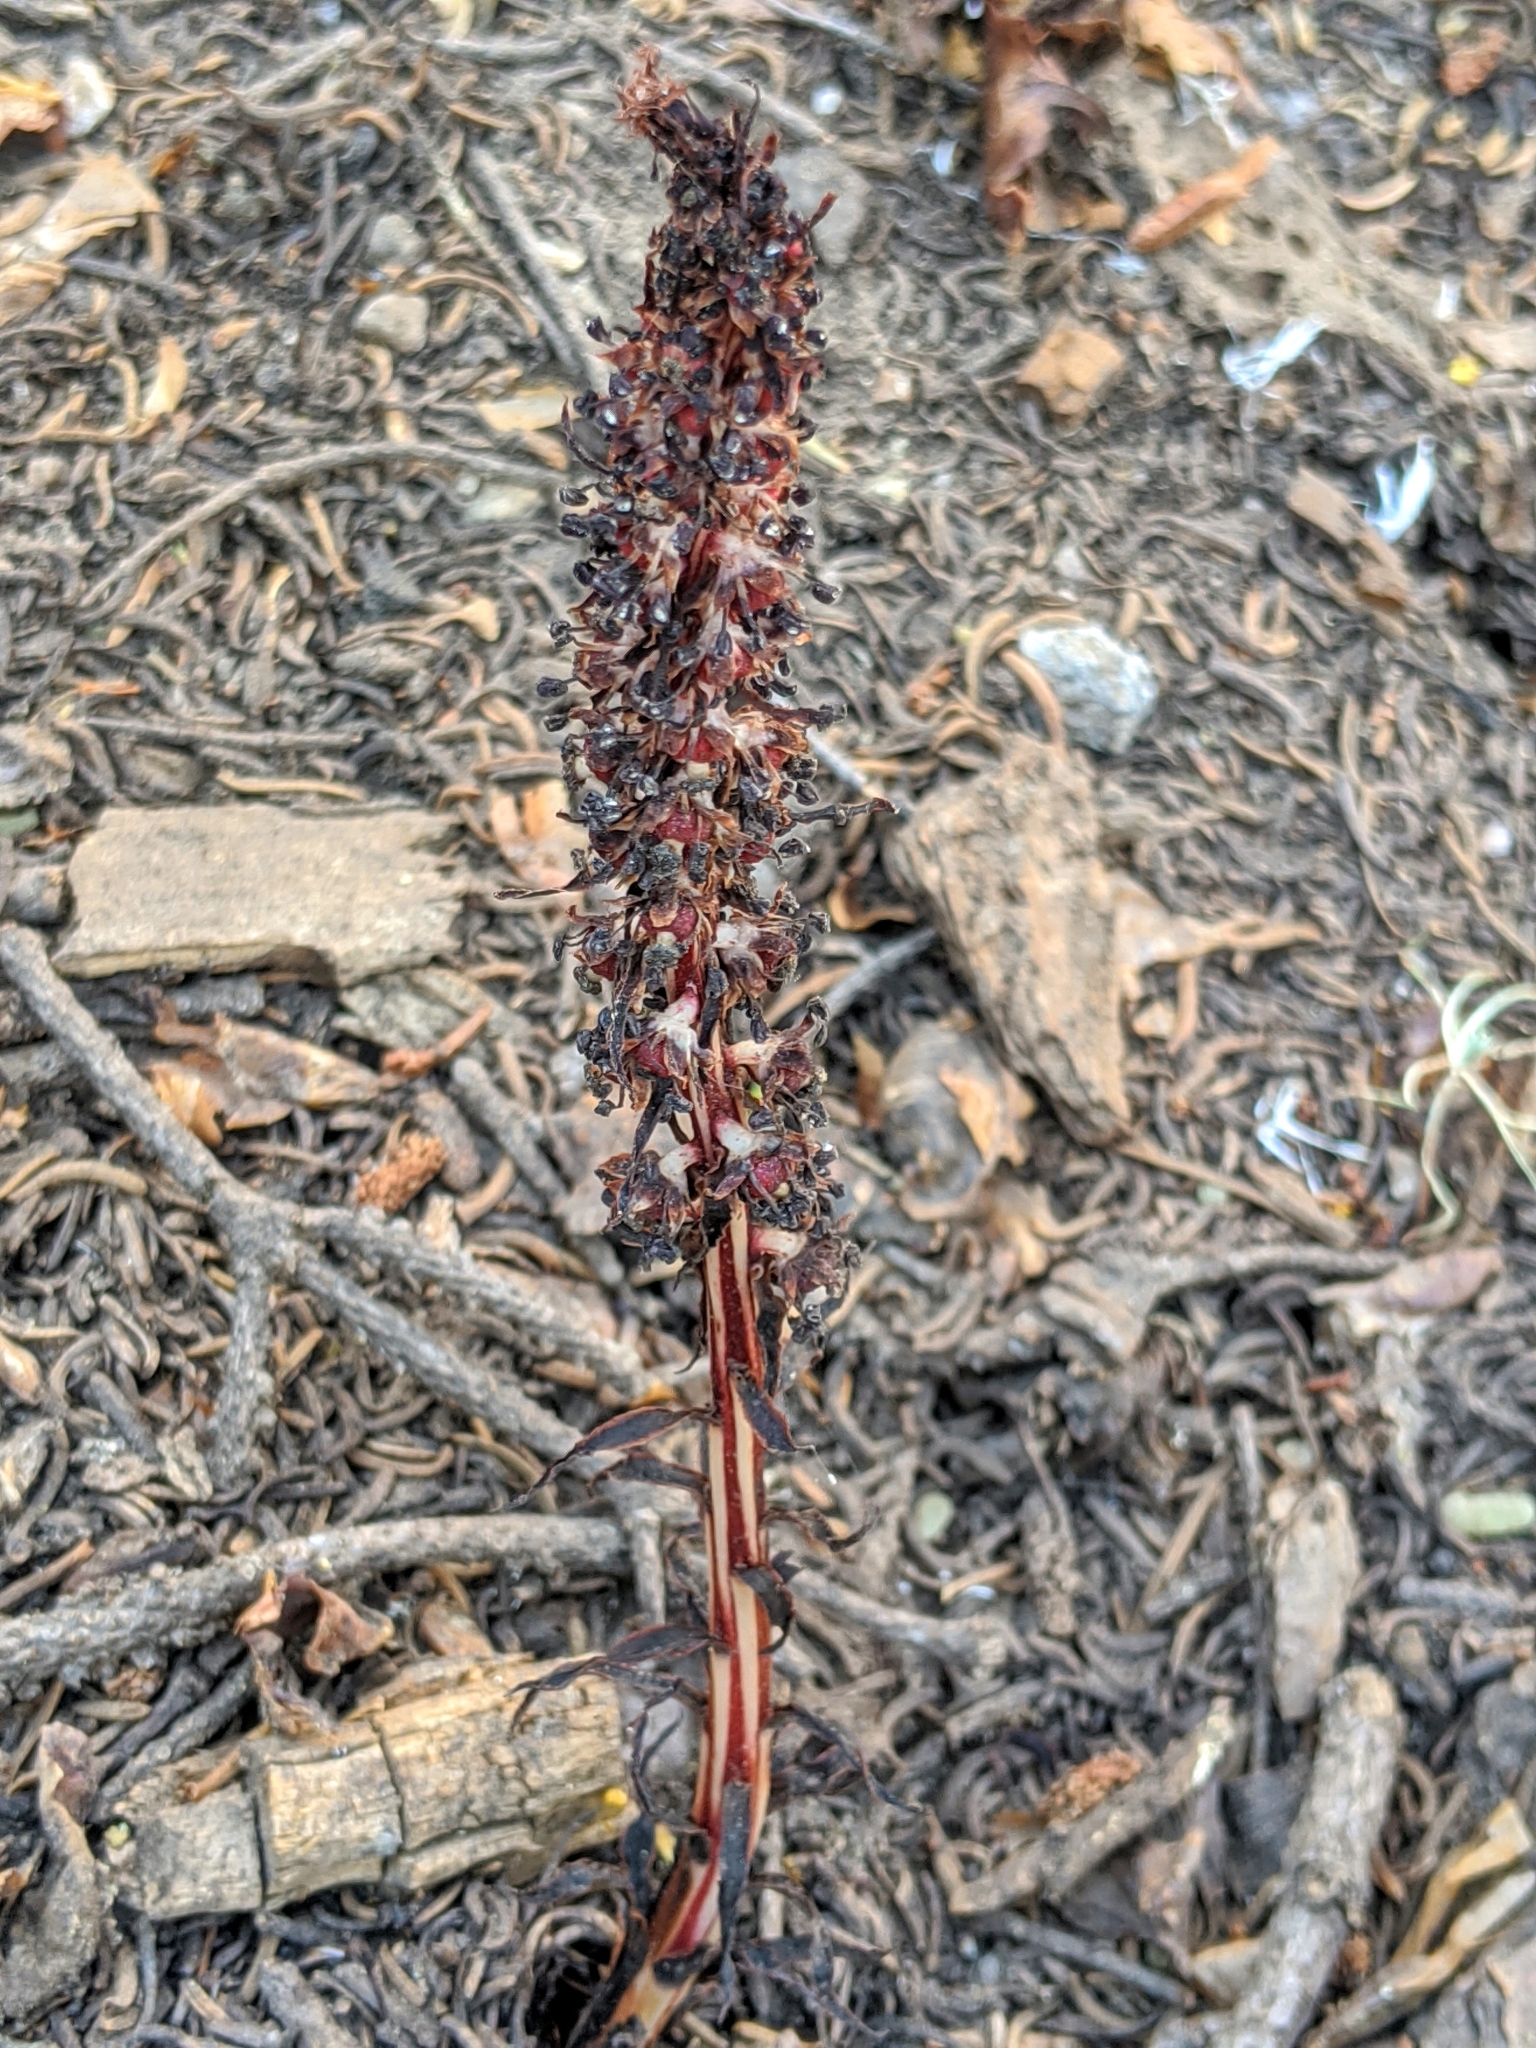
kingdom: Plantae
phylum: Tracheophyta
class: Magnoliopsida
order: Ericales
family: Ericaceae
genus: Allotropa
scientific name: Allotropa virgata
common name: Candy-striped allotropa
